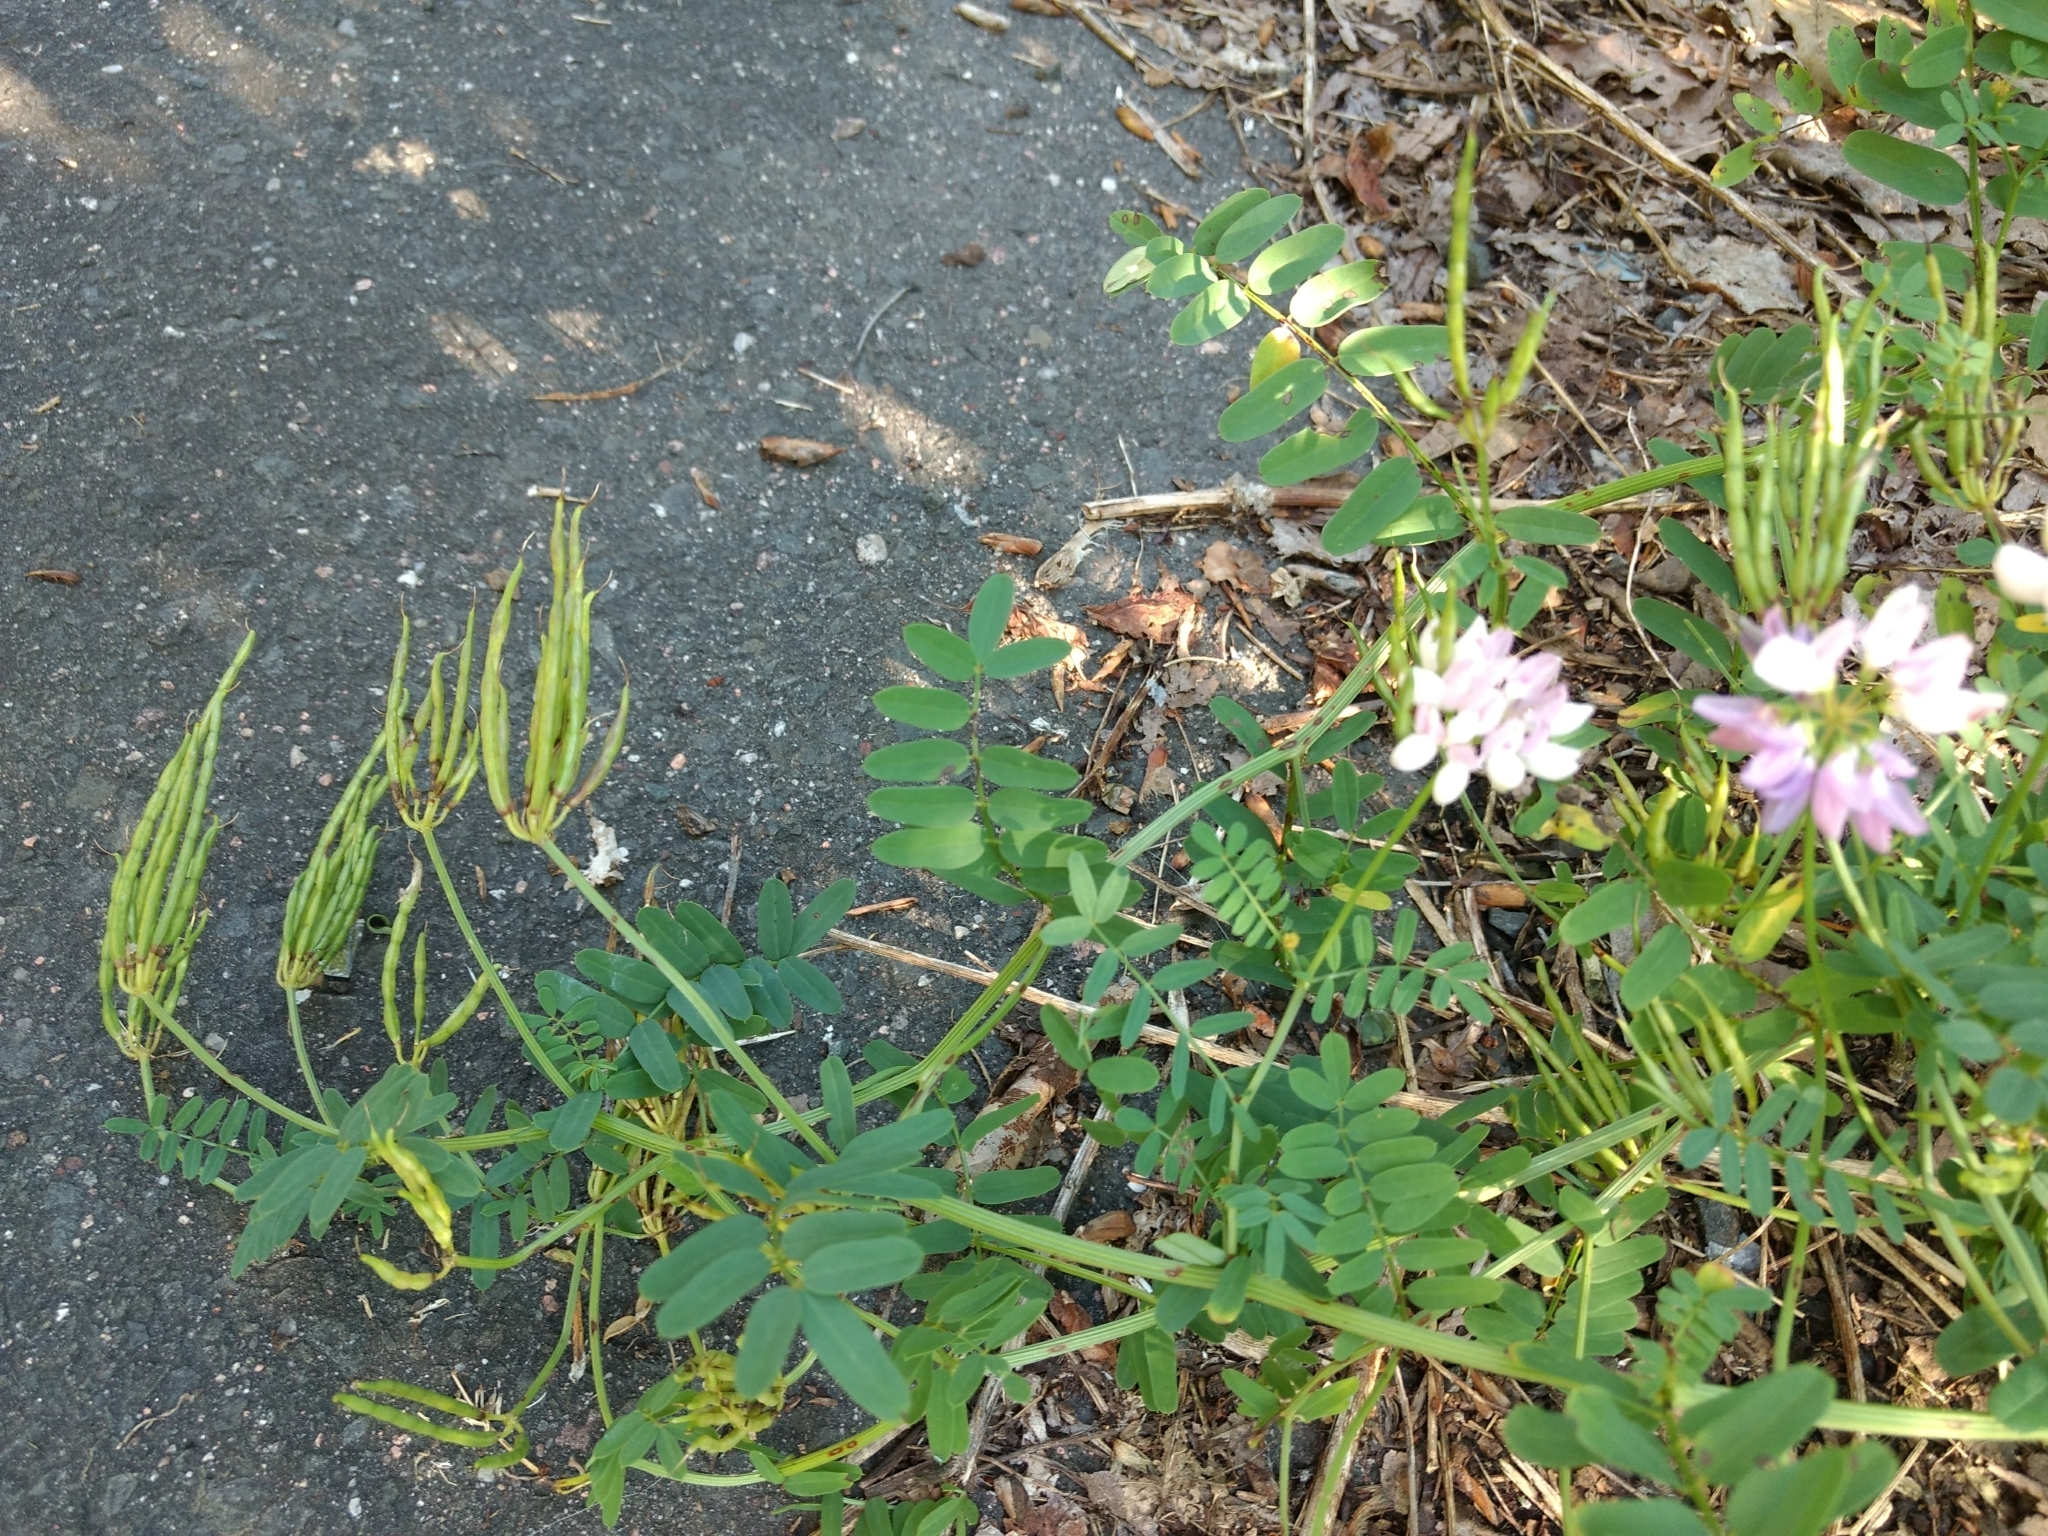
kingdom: Plantae
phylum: Tracheophyta
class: Magnoliopsida
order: Fabales
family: Fabaceae
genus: Coronilla
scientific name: Coronilla varia
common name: Crownvetch
